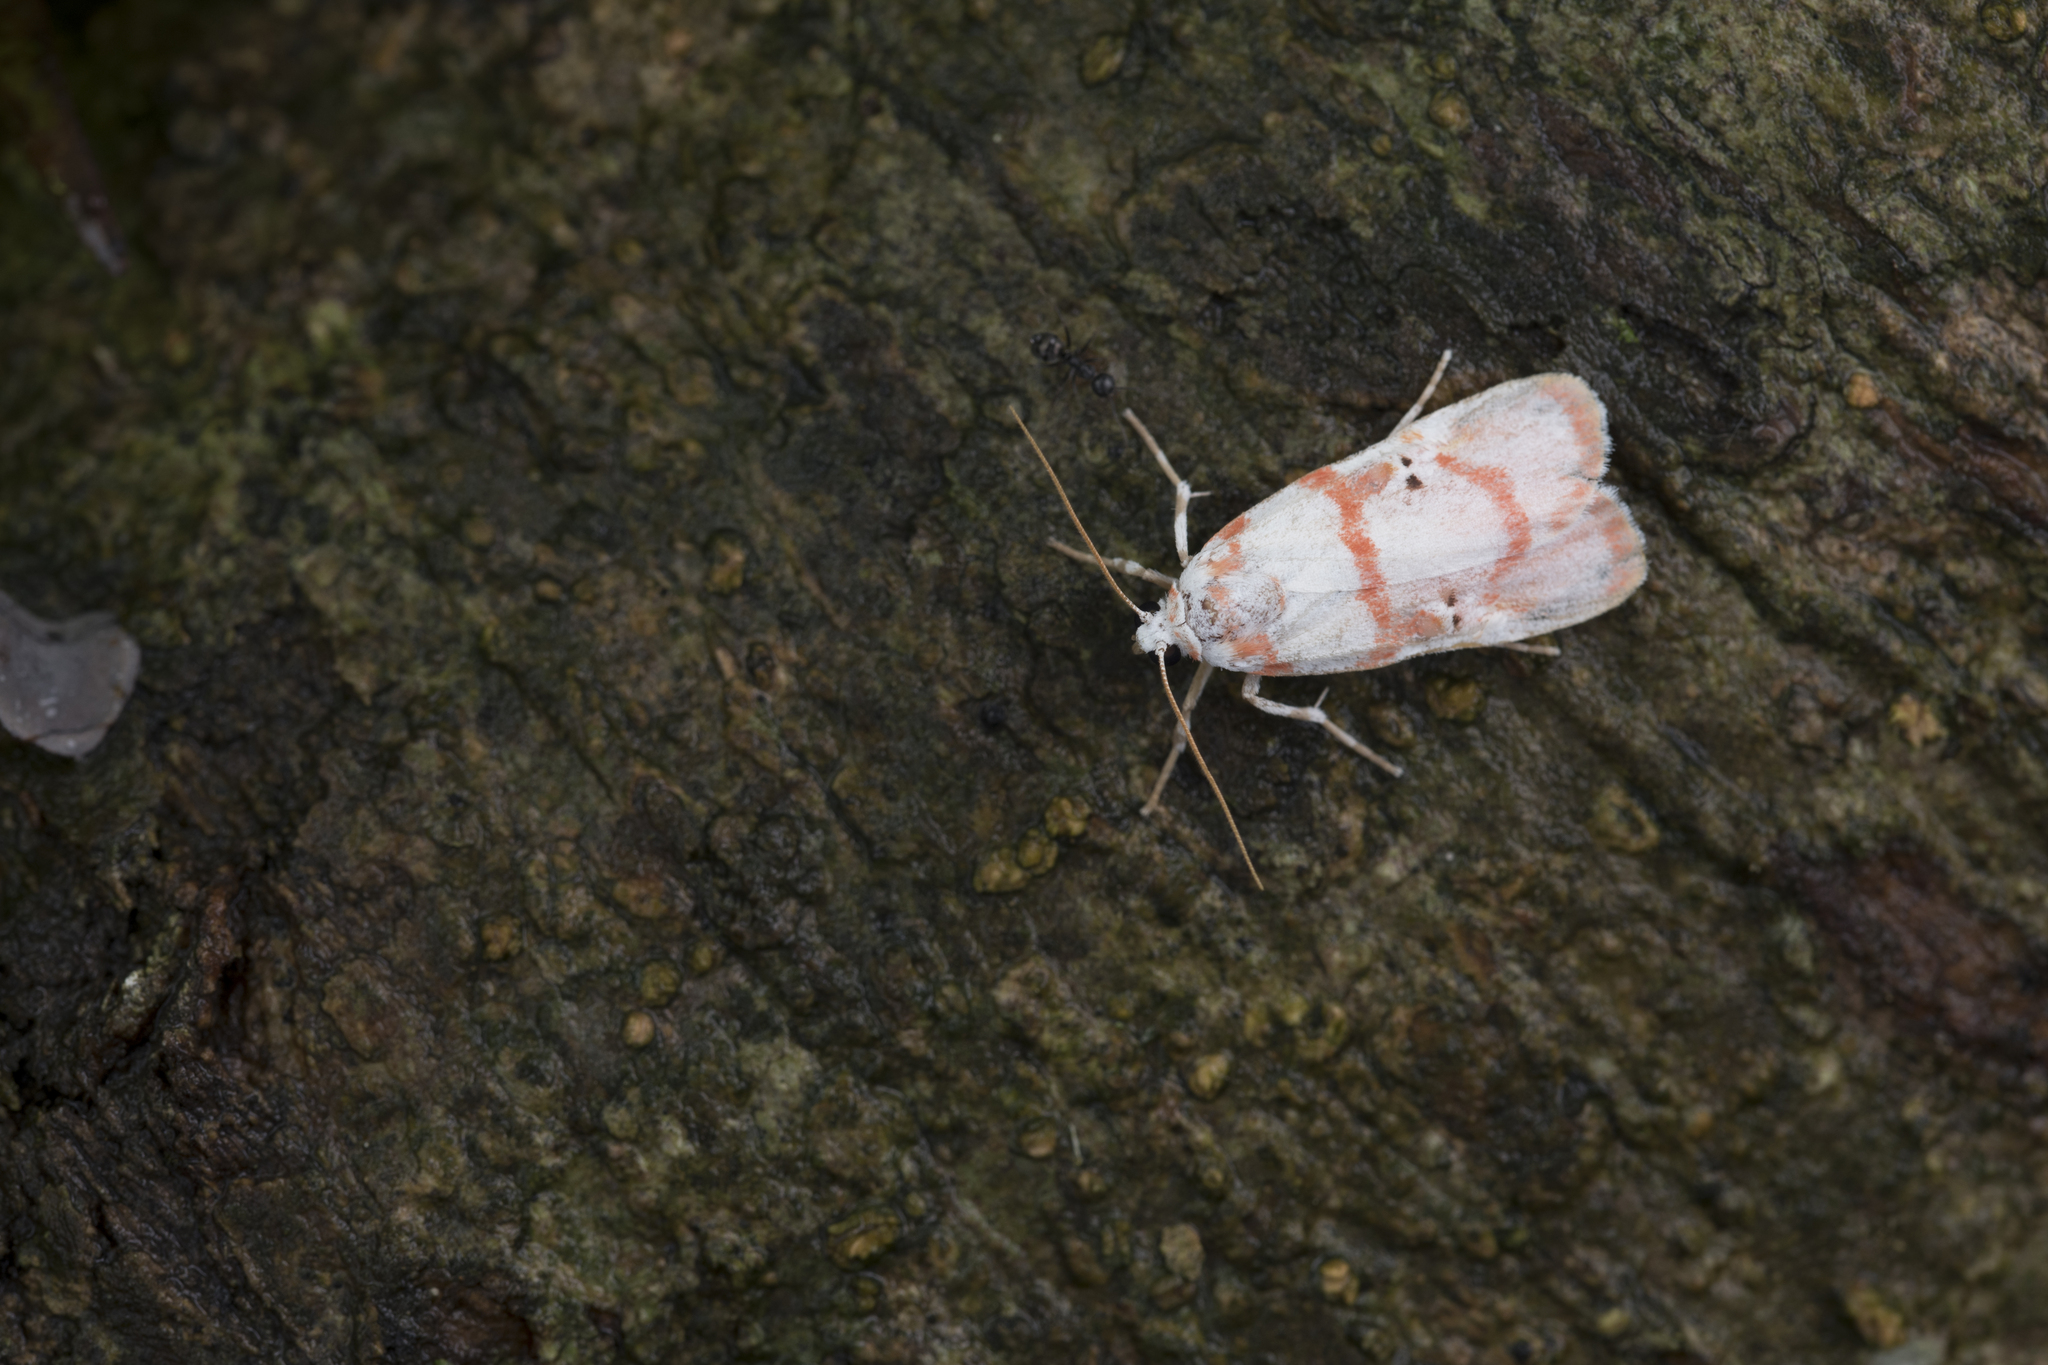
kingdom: Animalia
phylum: Arthropoda
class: Insecta
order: Lepidoptera
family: Erebidae
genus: Cyana
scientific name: Cyana hamata
